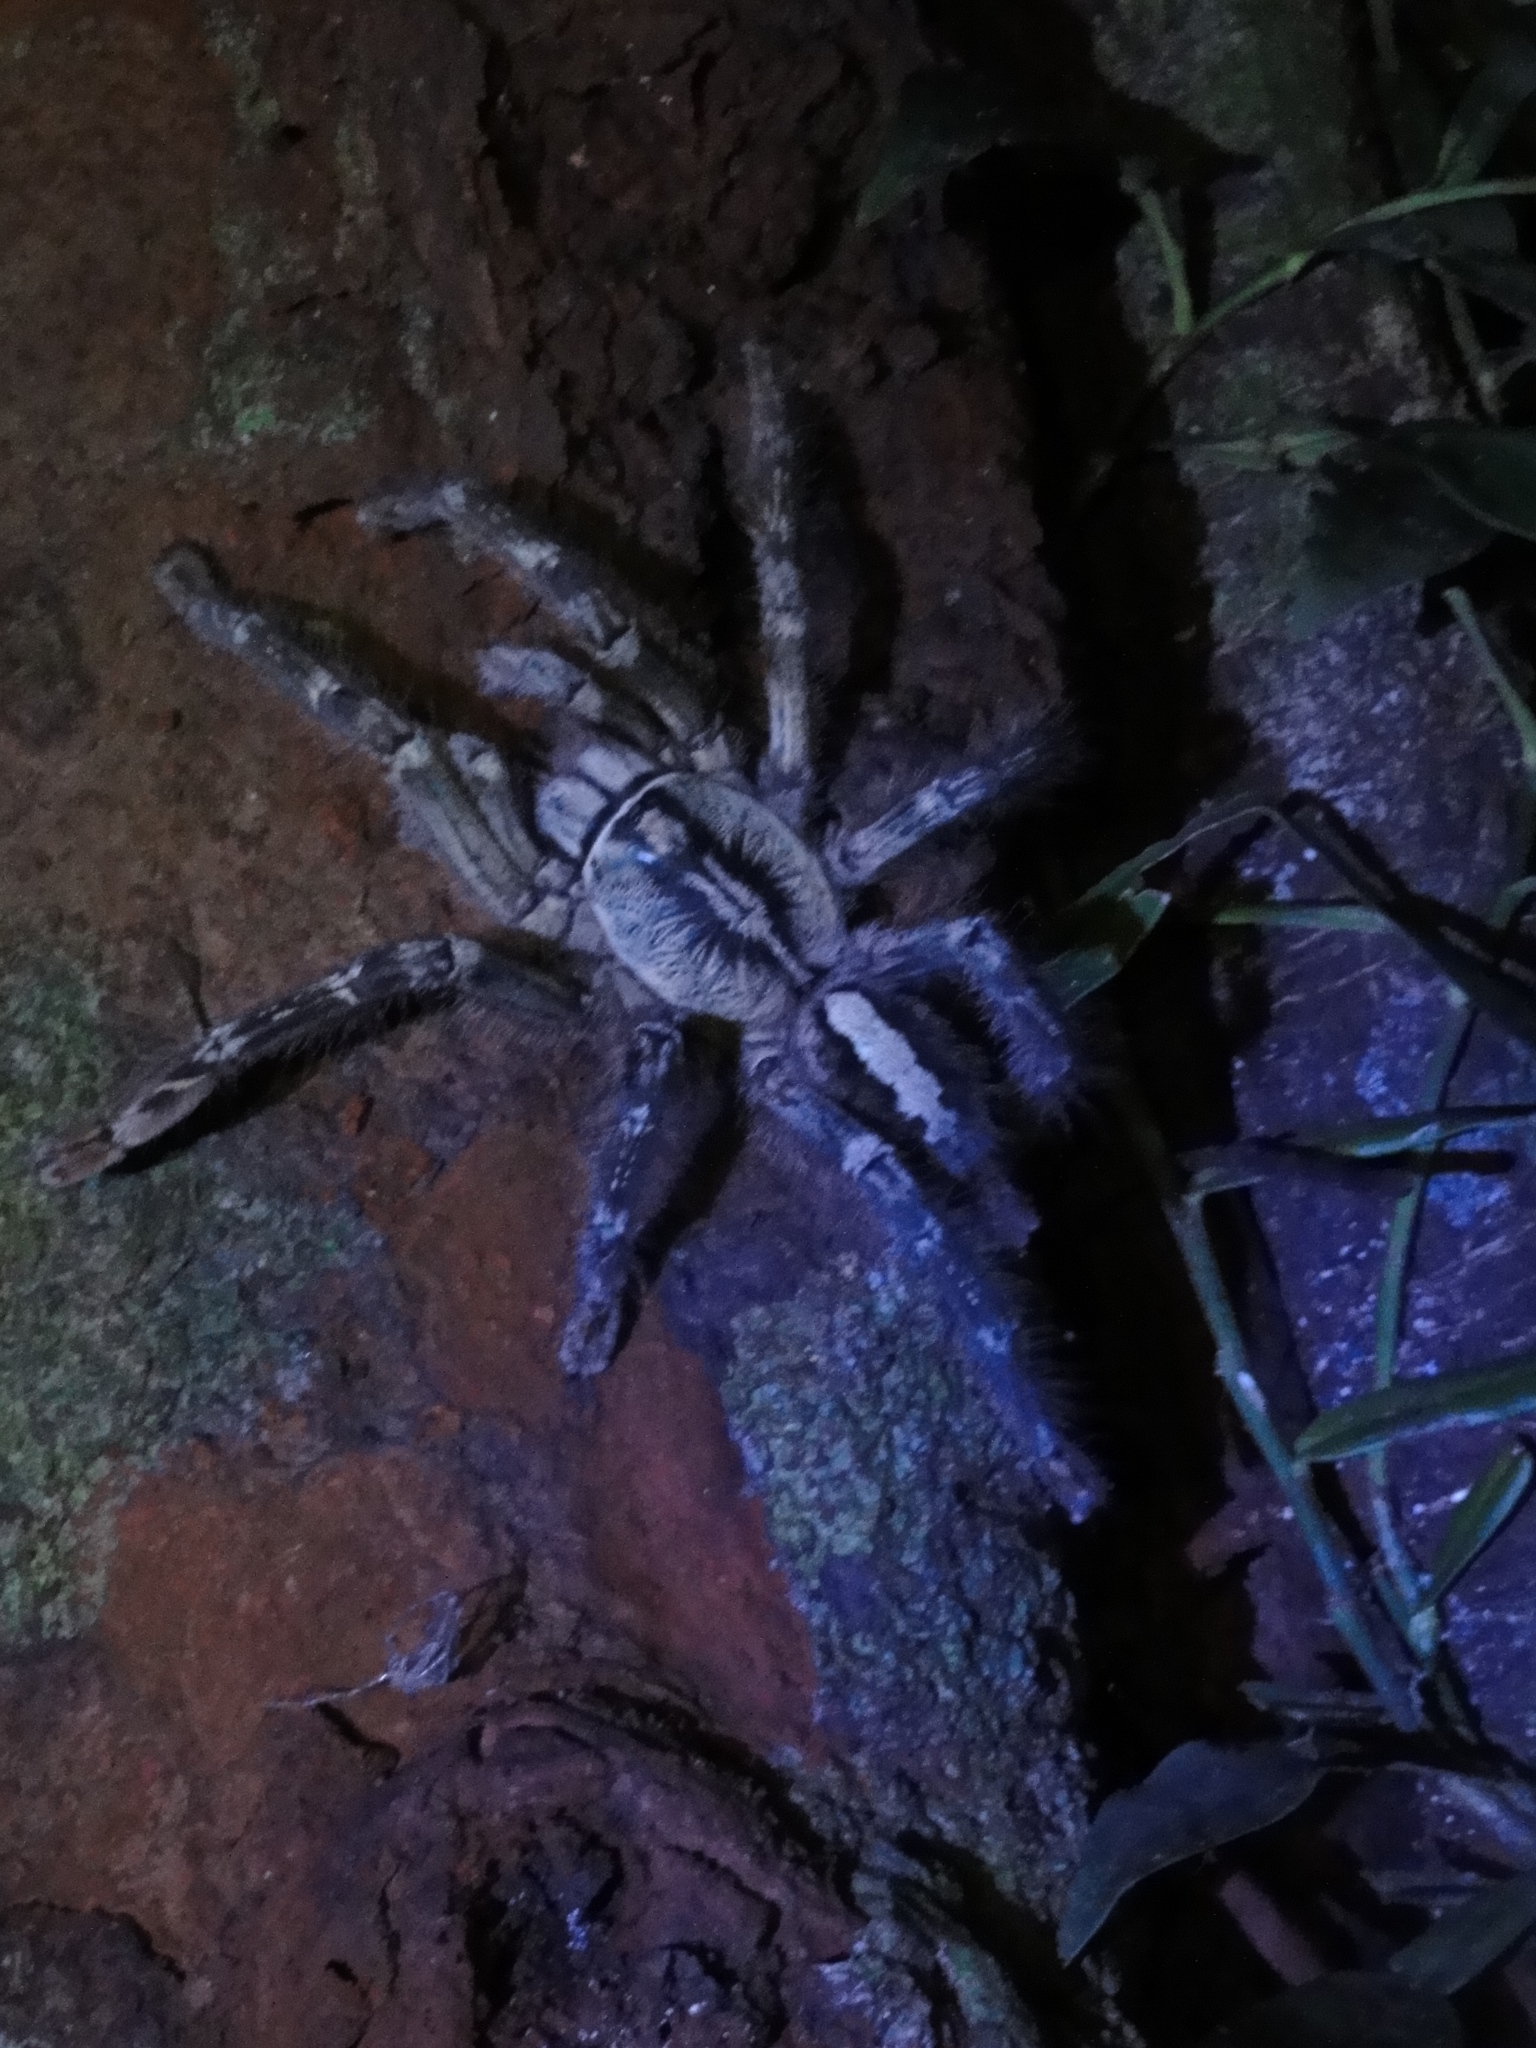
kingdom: Animalia
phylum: Arthropoda
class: Arachnida
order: Araneae
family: Theraphosidae
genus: Poecilotheria
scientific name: Poecilotheria ornata
